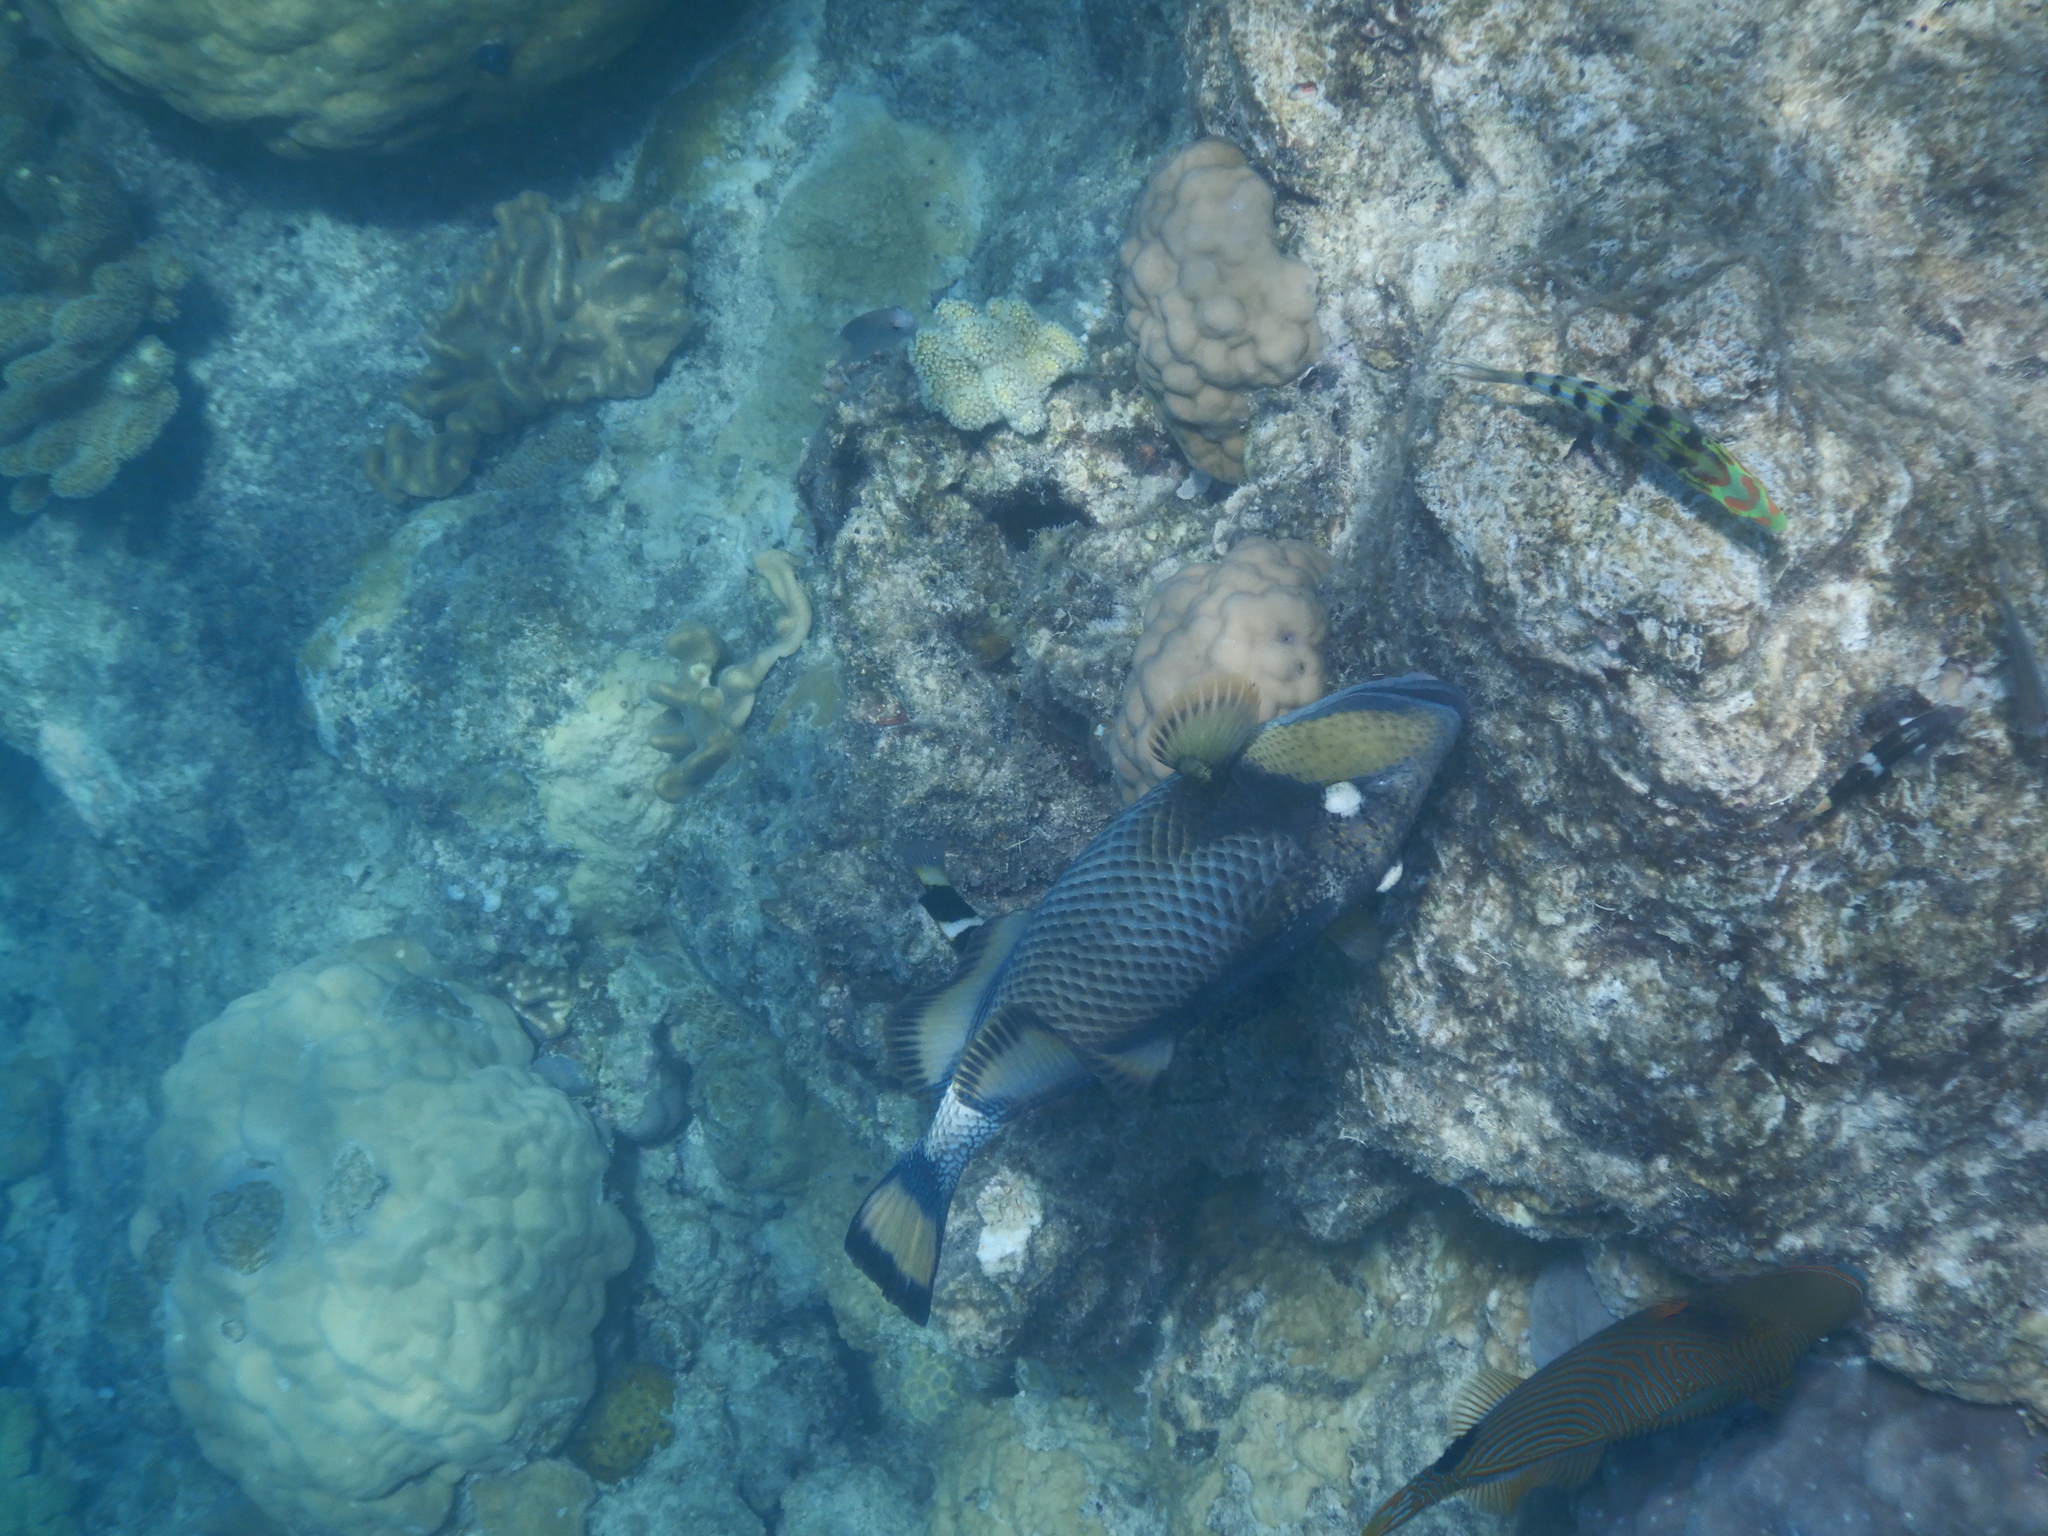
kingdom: Animalia
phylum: Chordata
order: Tetraodontiformes
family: Balistidae
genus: Balistoides
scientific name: Balistoides viridescens
